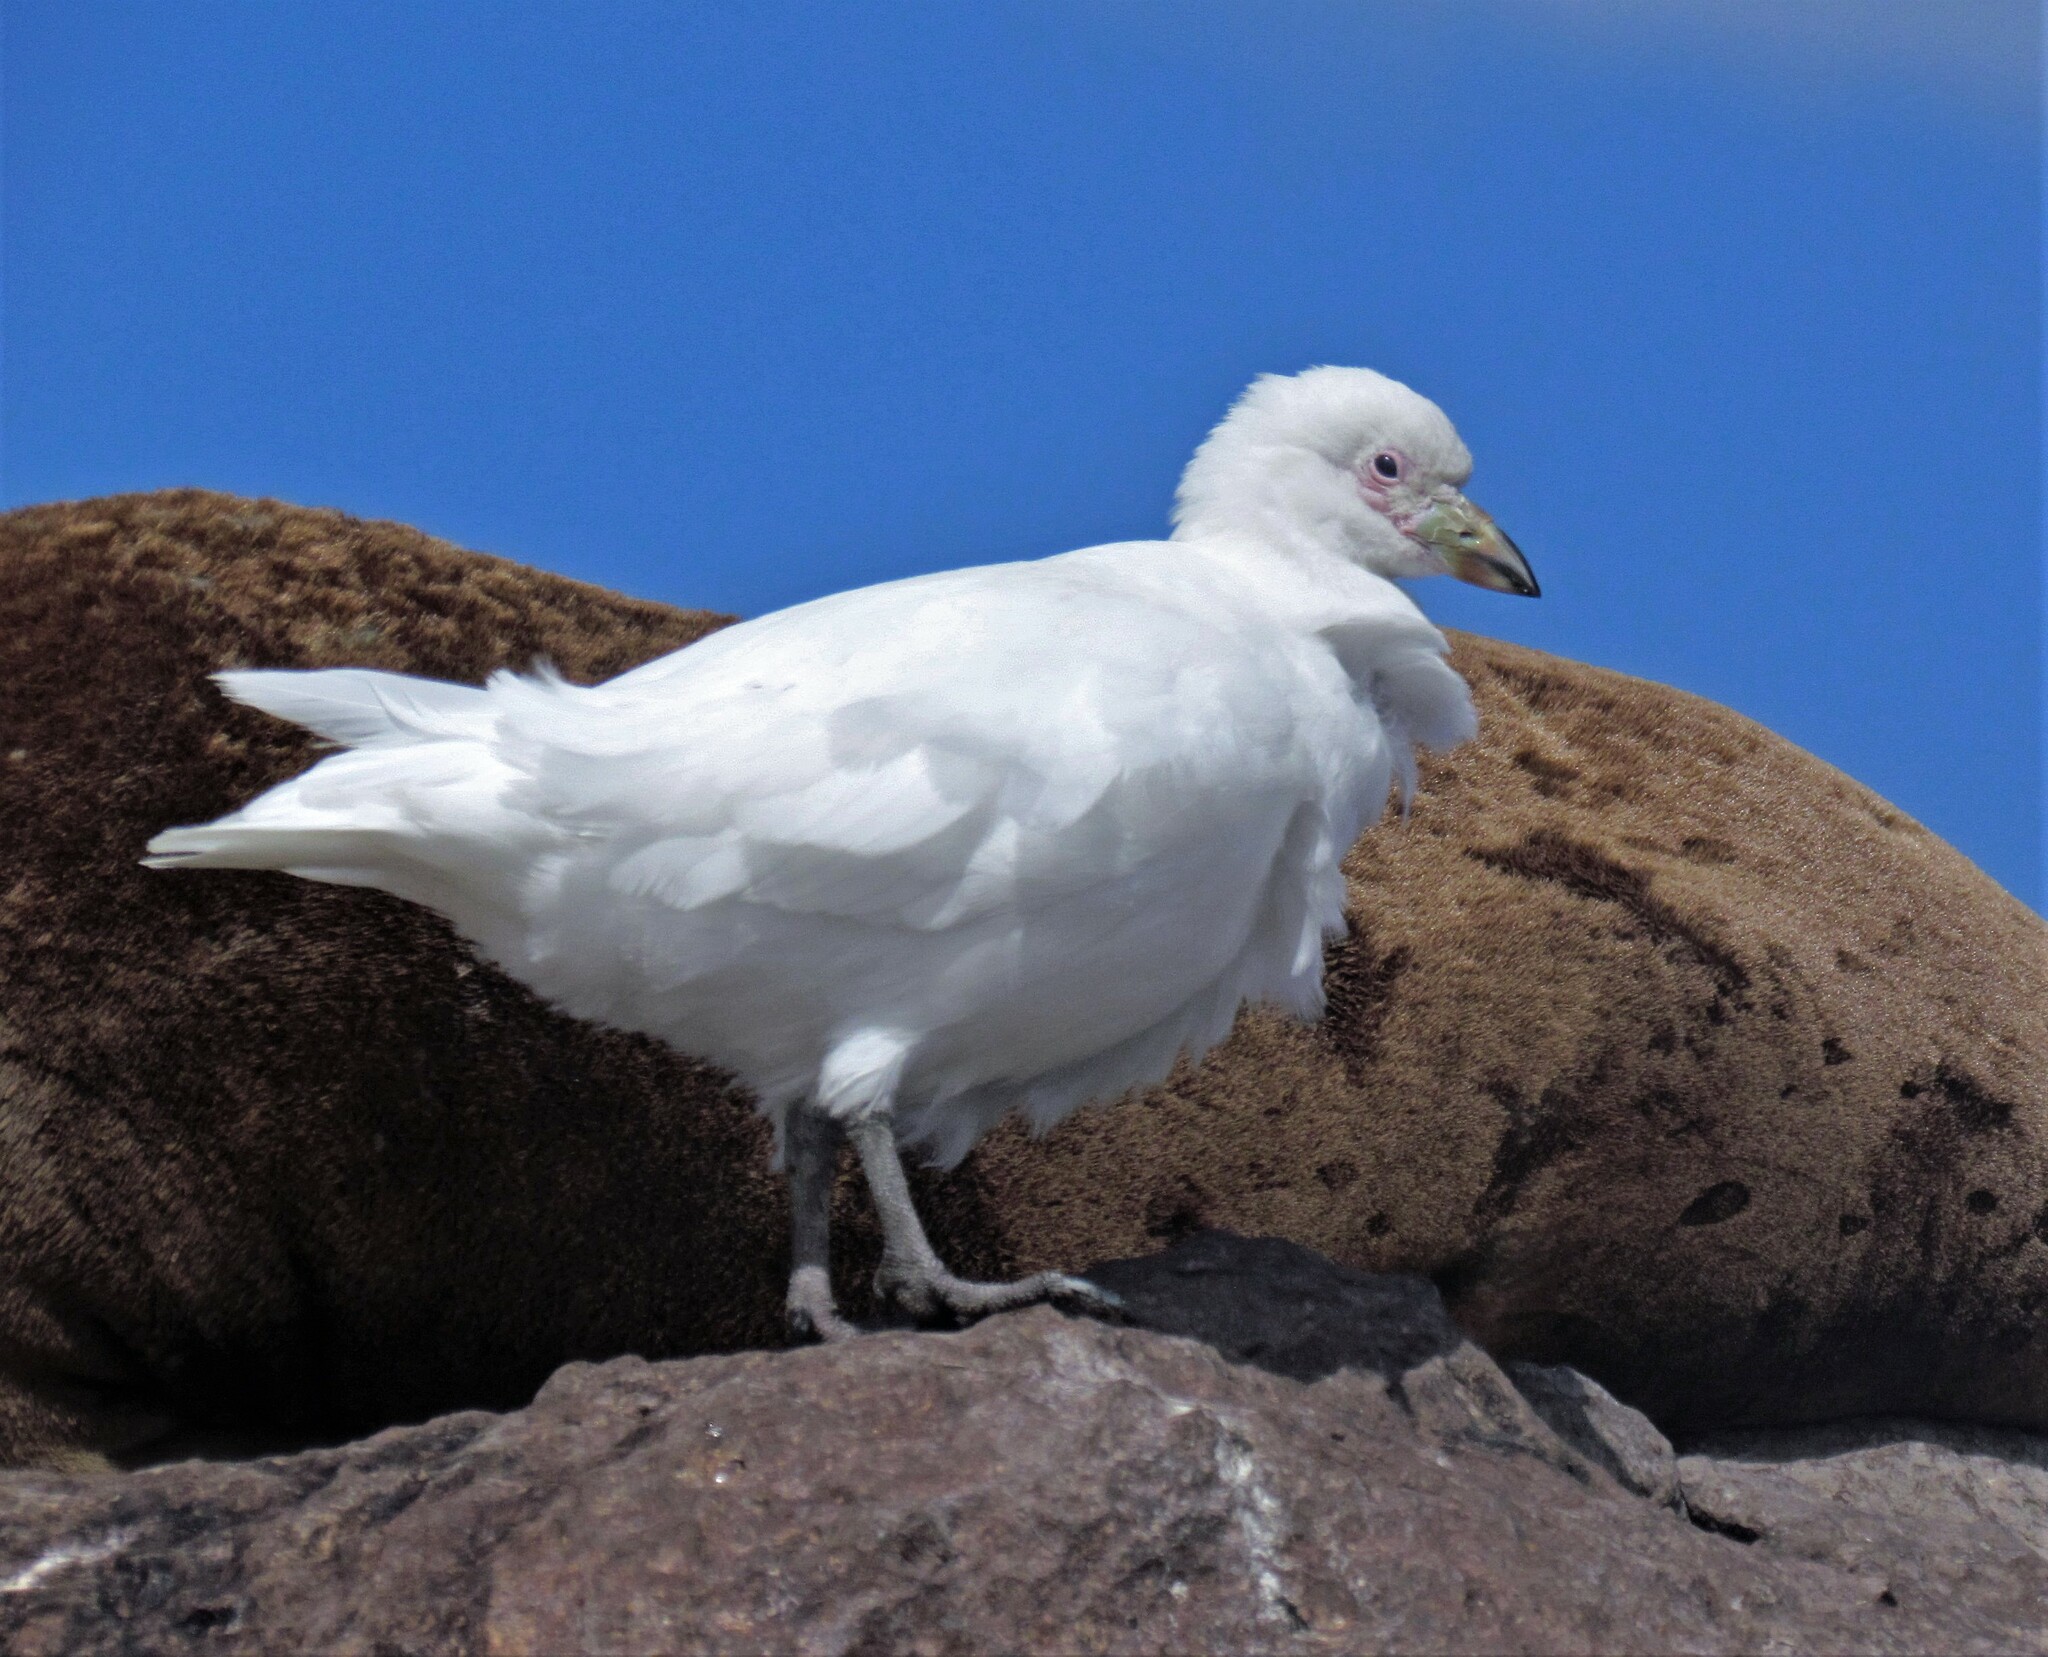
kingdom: Animalia
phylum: Chordata
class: Aves
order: Charadriiformes
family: Chionidae
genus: Chionis
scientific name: Chionis albus
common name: Snowy sheathbill
